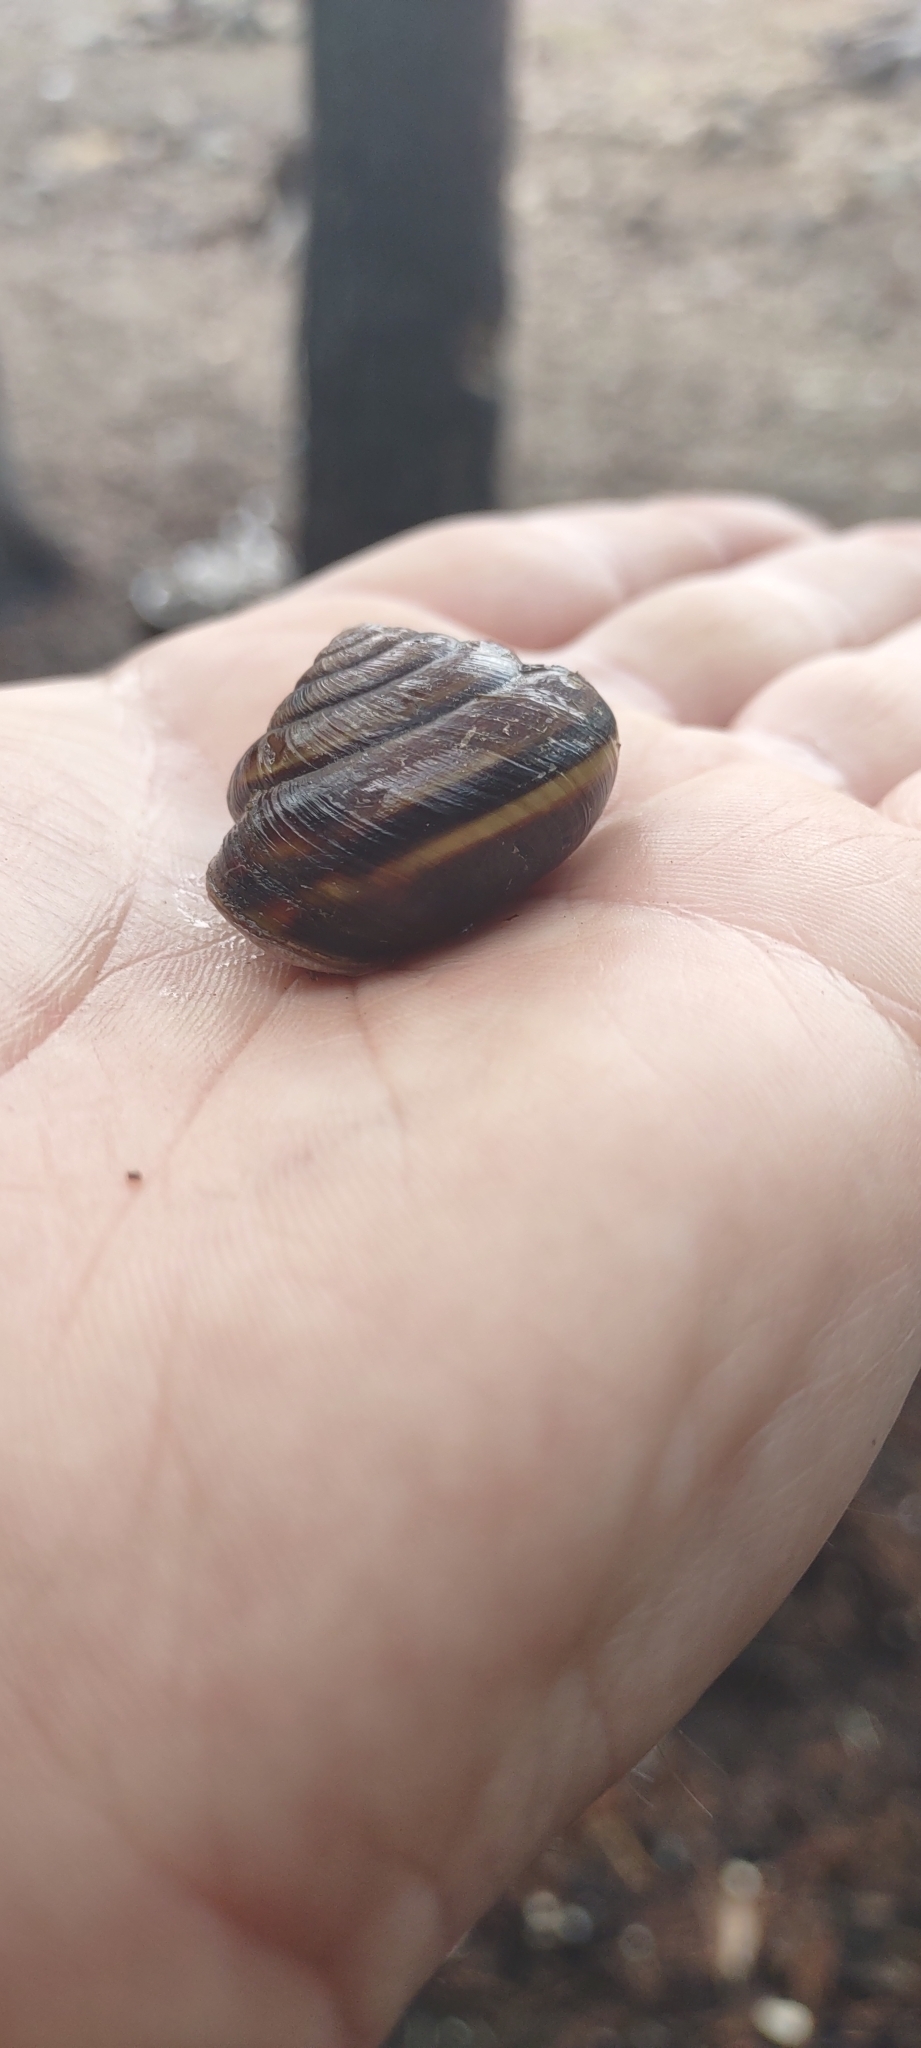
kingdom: Animalia
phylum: Mollusca
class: Gastropoda
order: Stylommatophora
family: Xanthonychidae
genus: Monadenia
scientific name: Monadenia fidelis
